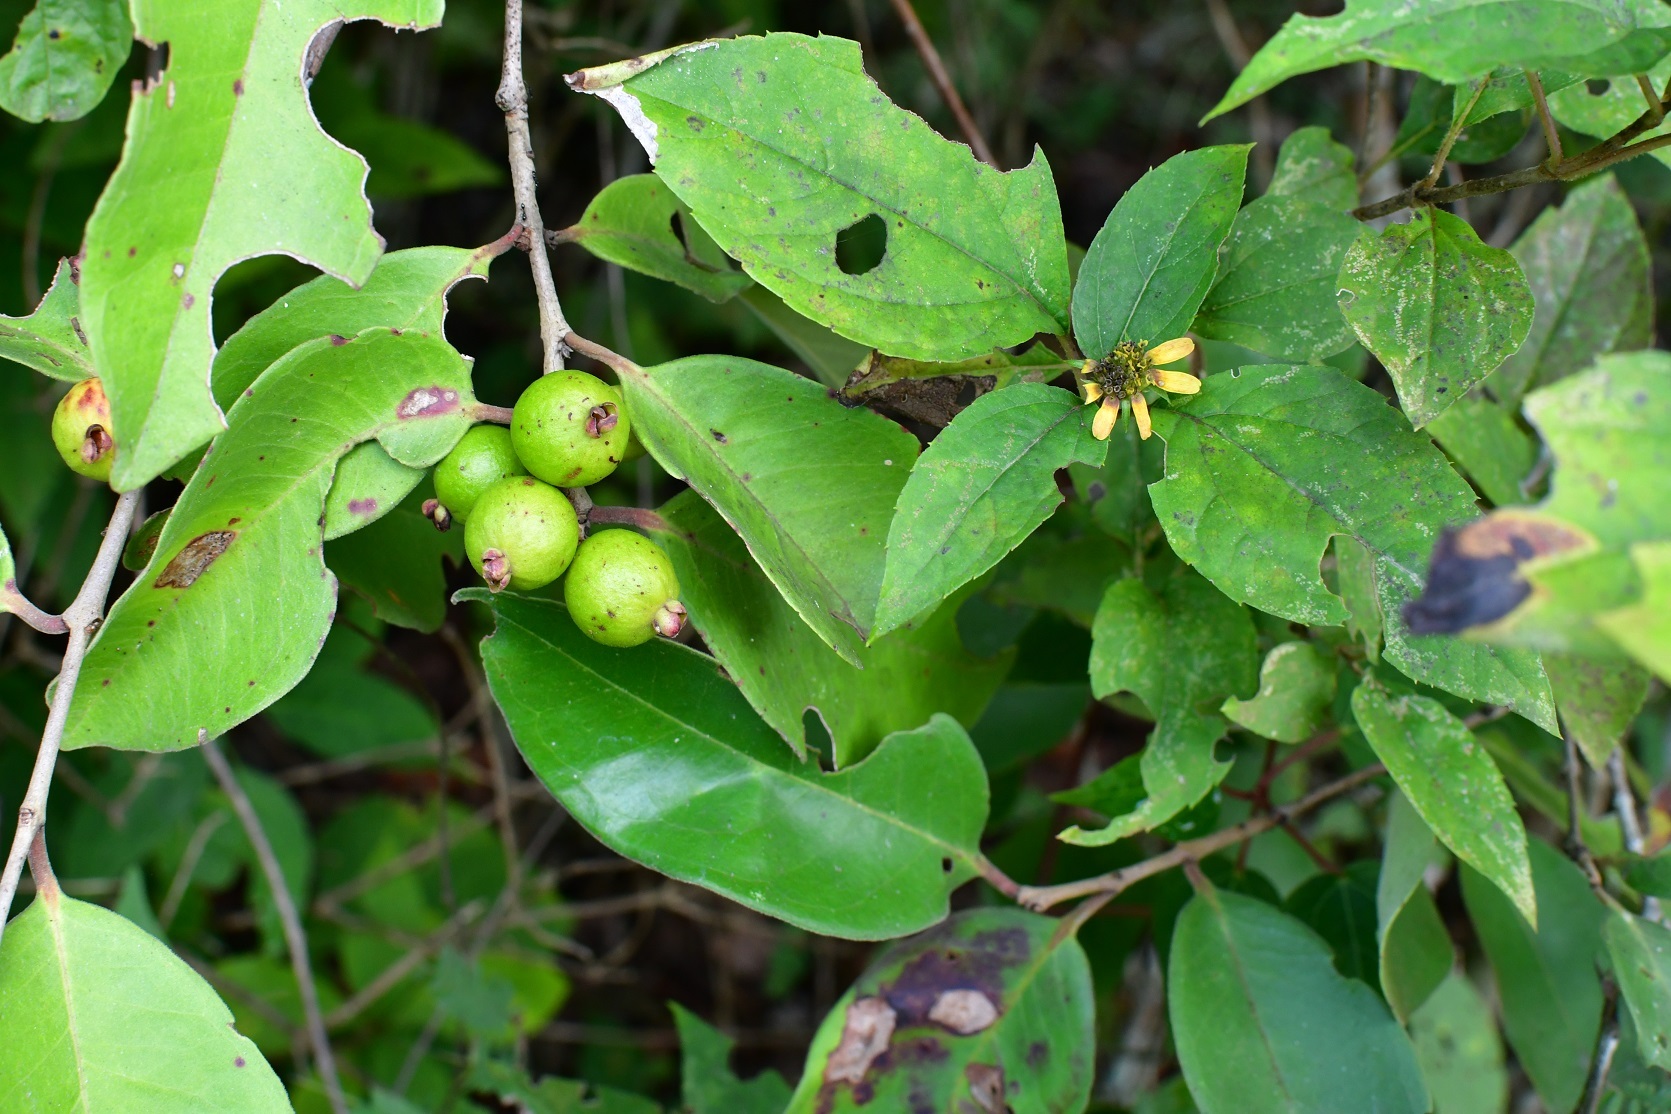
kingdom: Plantae
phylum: Tracheophyta
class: Magnoliopsida
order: Myrtales
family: Myrtaceae
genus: Eugenia
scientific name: Eugenia capulioides
